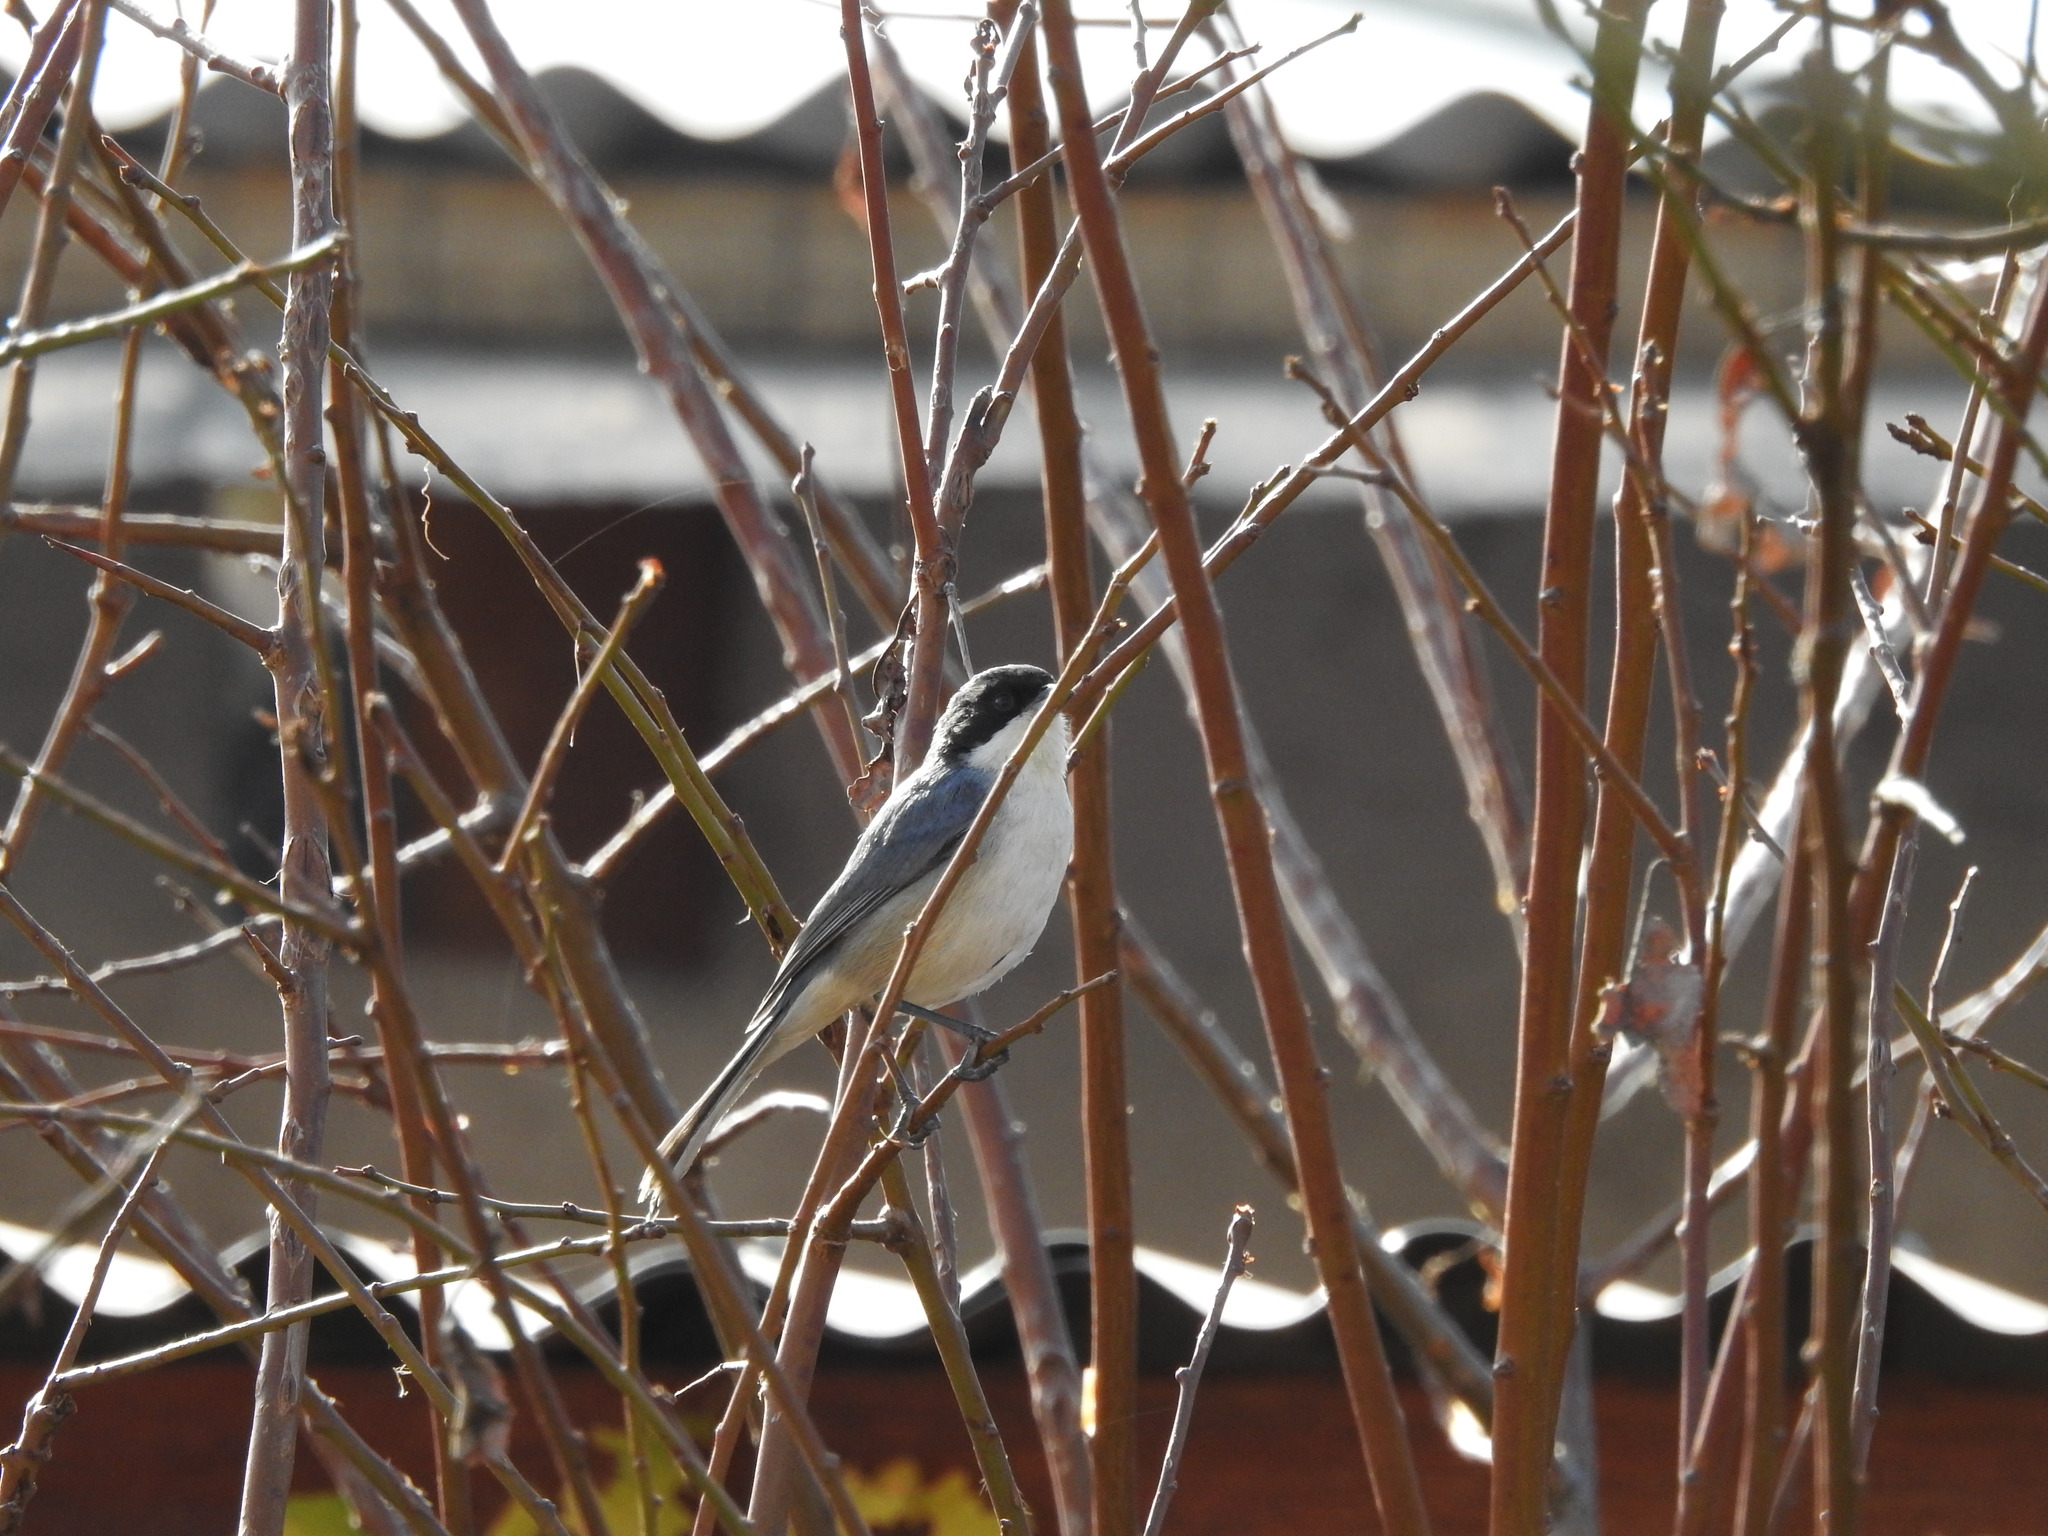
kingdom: Animalia
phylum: Chordata
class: Aves
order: Passeriformes
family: Thraupidae
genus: Microspingus
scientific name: Microspingus melanoleucus
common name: Black-capped warbling-finch
